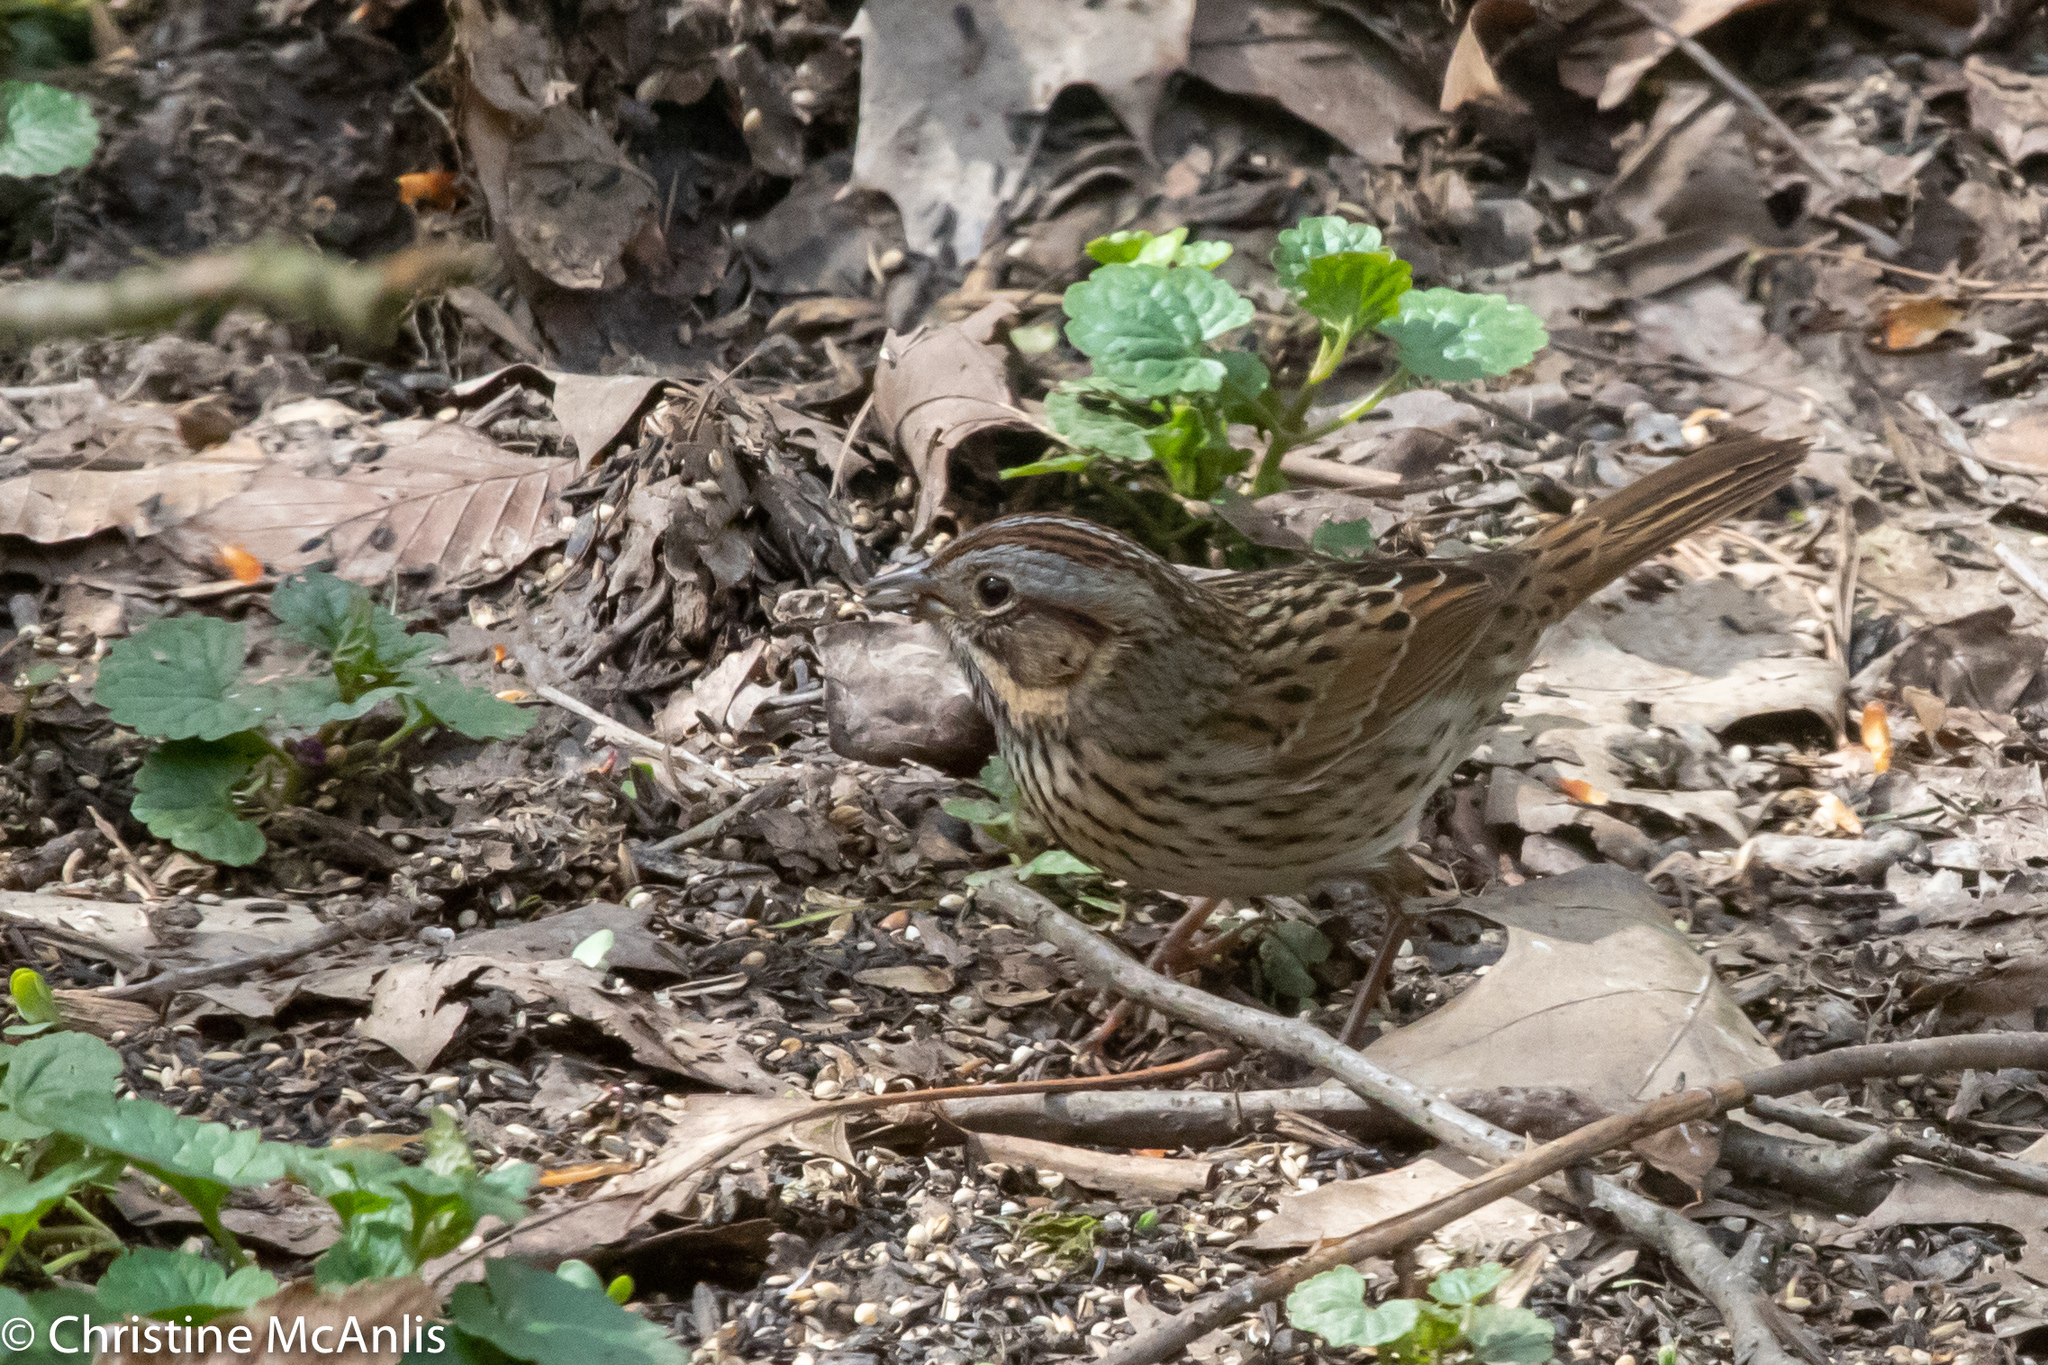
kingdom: Animalia
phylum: Chordata
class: Aves
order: Passeriformes
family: Passerellidae
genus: Melospiza
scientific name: Melospiza lincolnii
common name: Lincoln's sparrow
